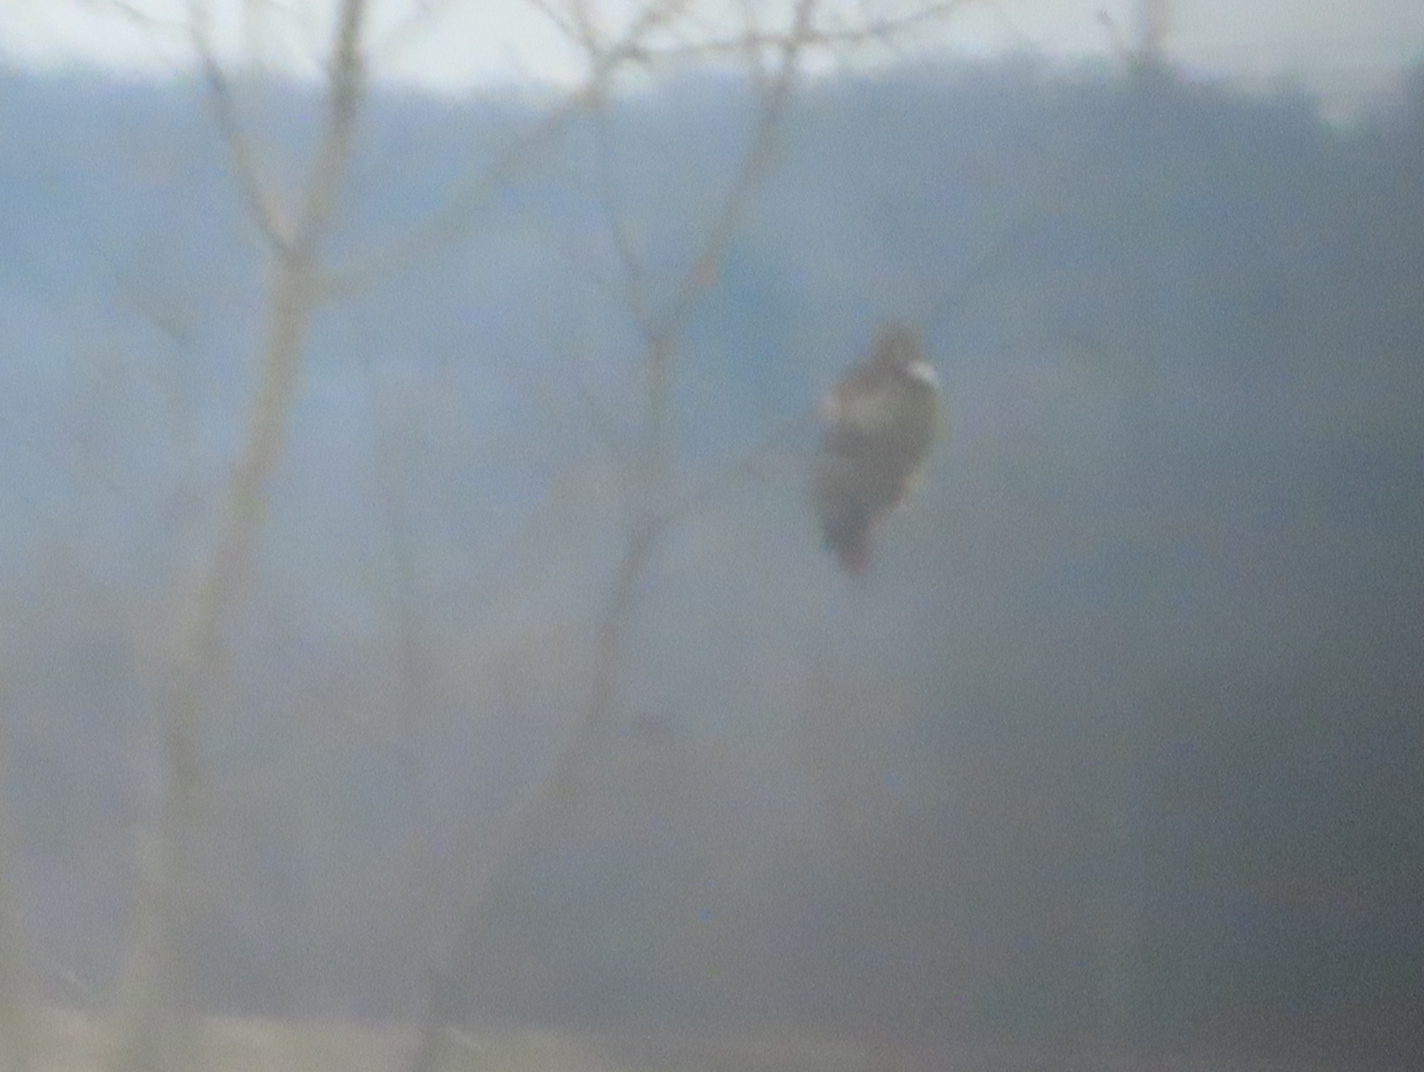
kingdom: Animalia
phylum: Chordata
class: Aves
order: Accipitriformes
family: Accipitridae
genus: Buteo
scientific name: Buteo jamaicensis
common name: Red-tailed hawk
